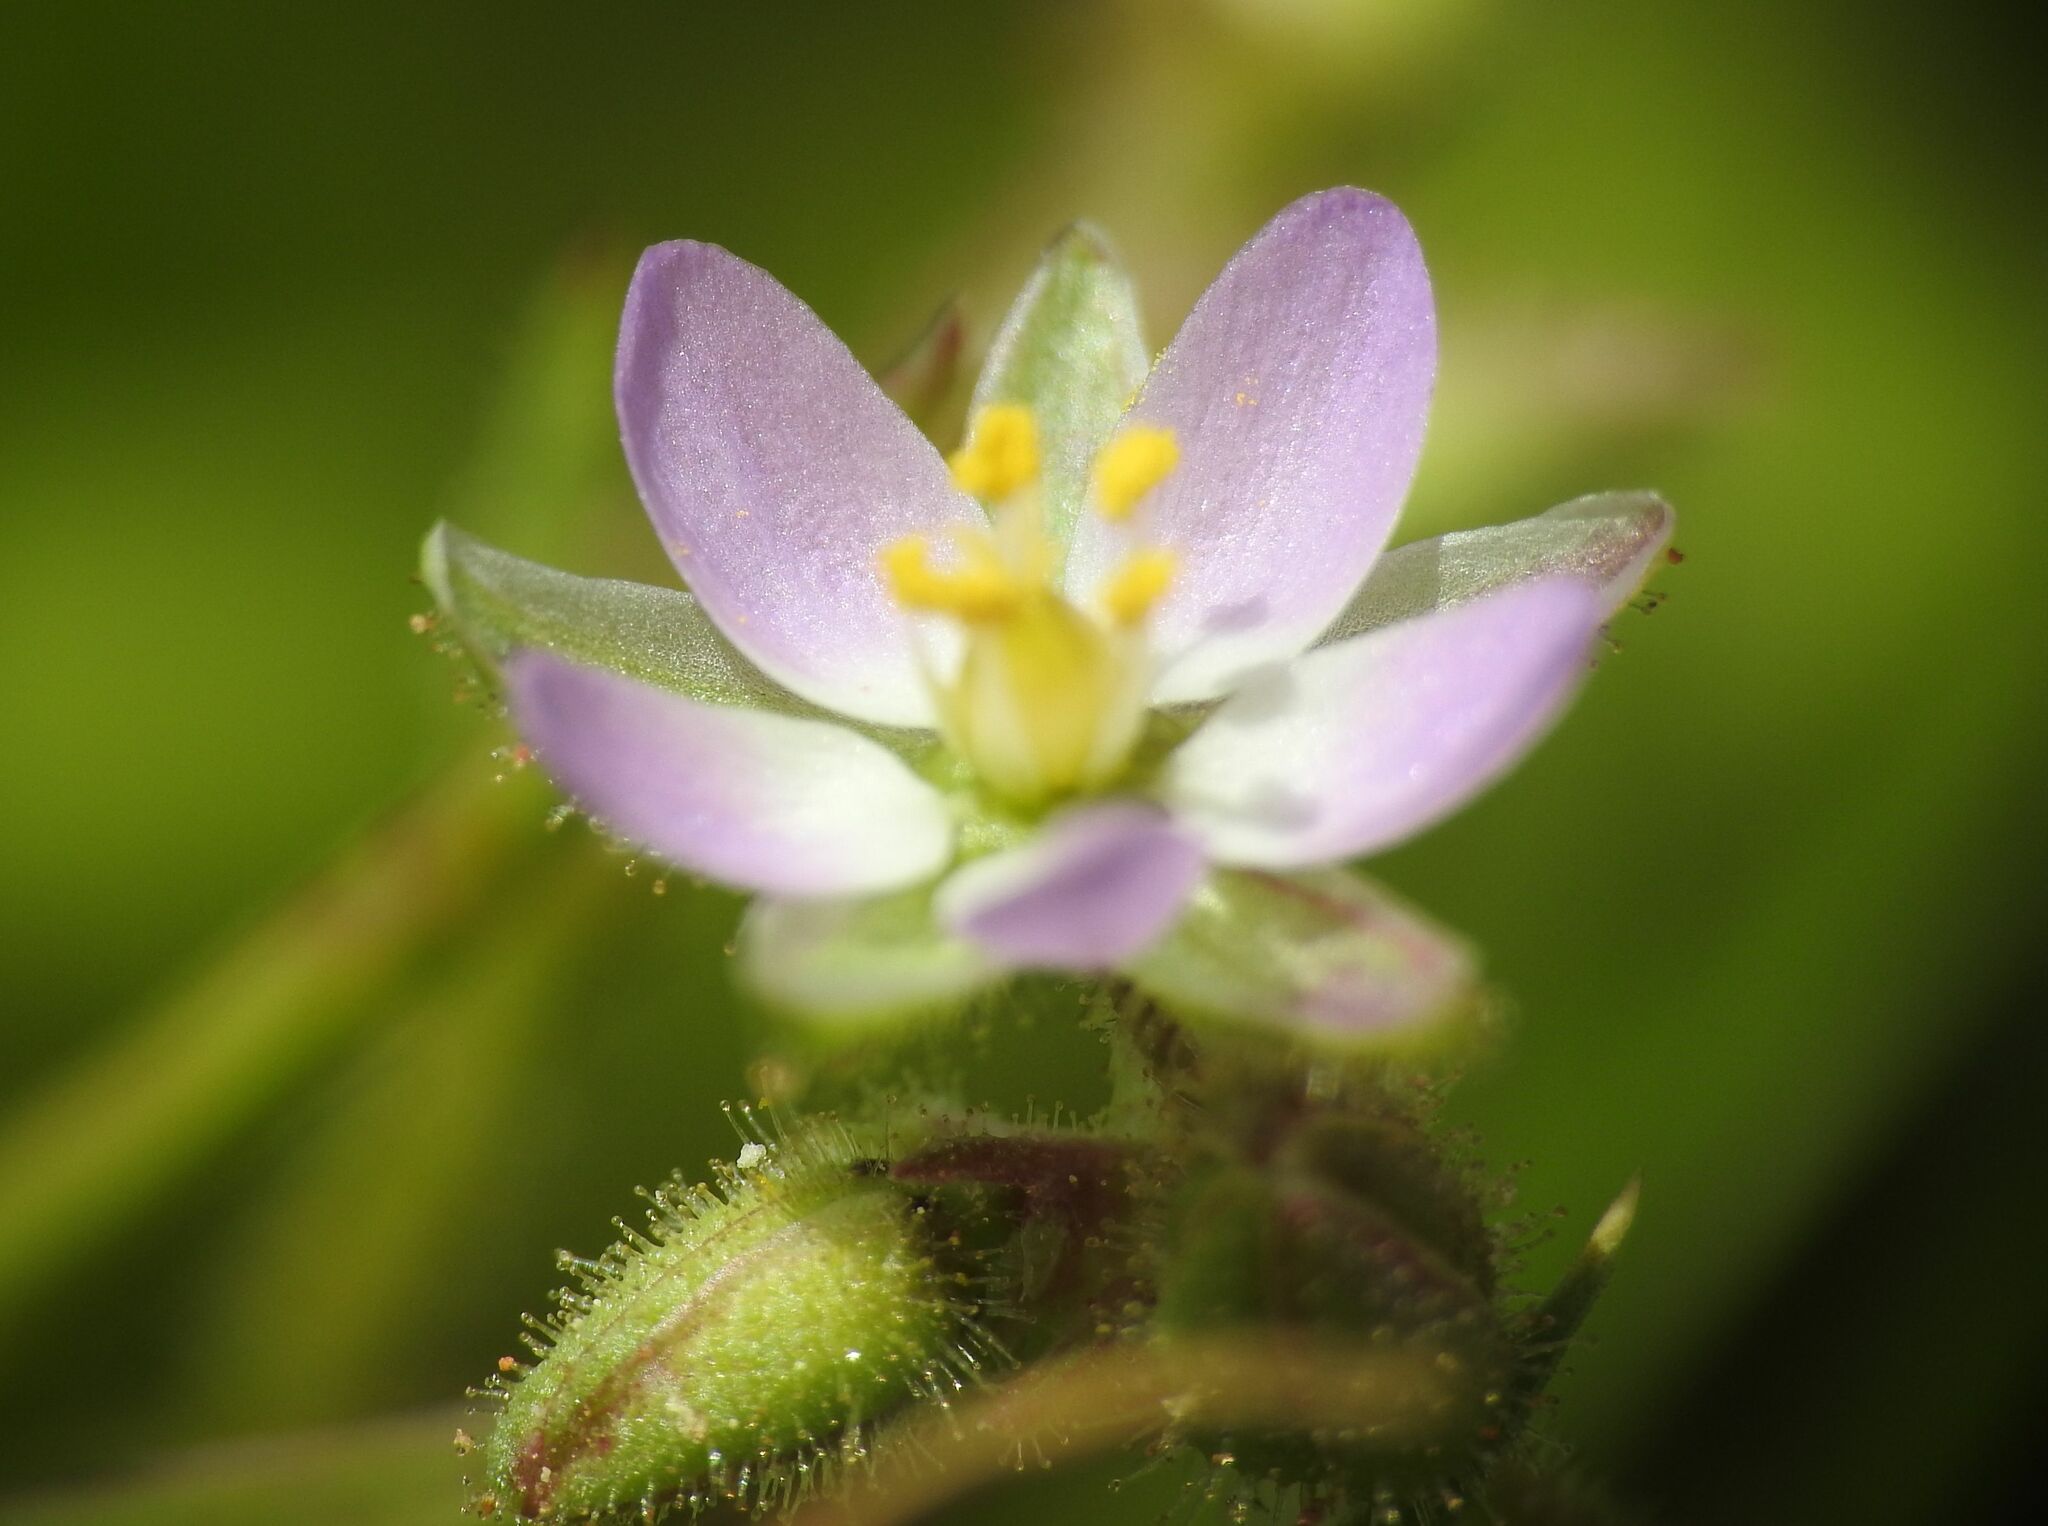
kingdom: Plantae
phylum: Tracheophyta
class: Magnoliopsida
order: Caryophyllales
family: Caryophyllaceae
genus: Spergularia
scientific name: Spergularia marina
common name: Lesser sea-spurrey
